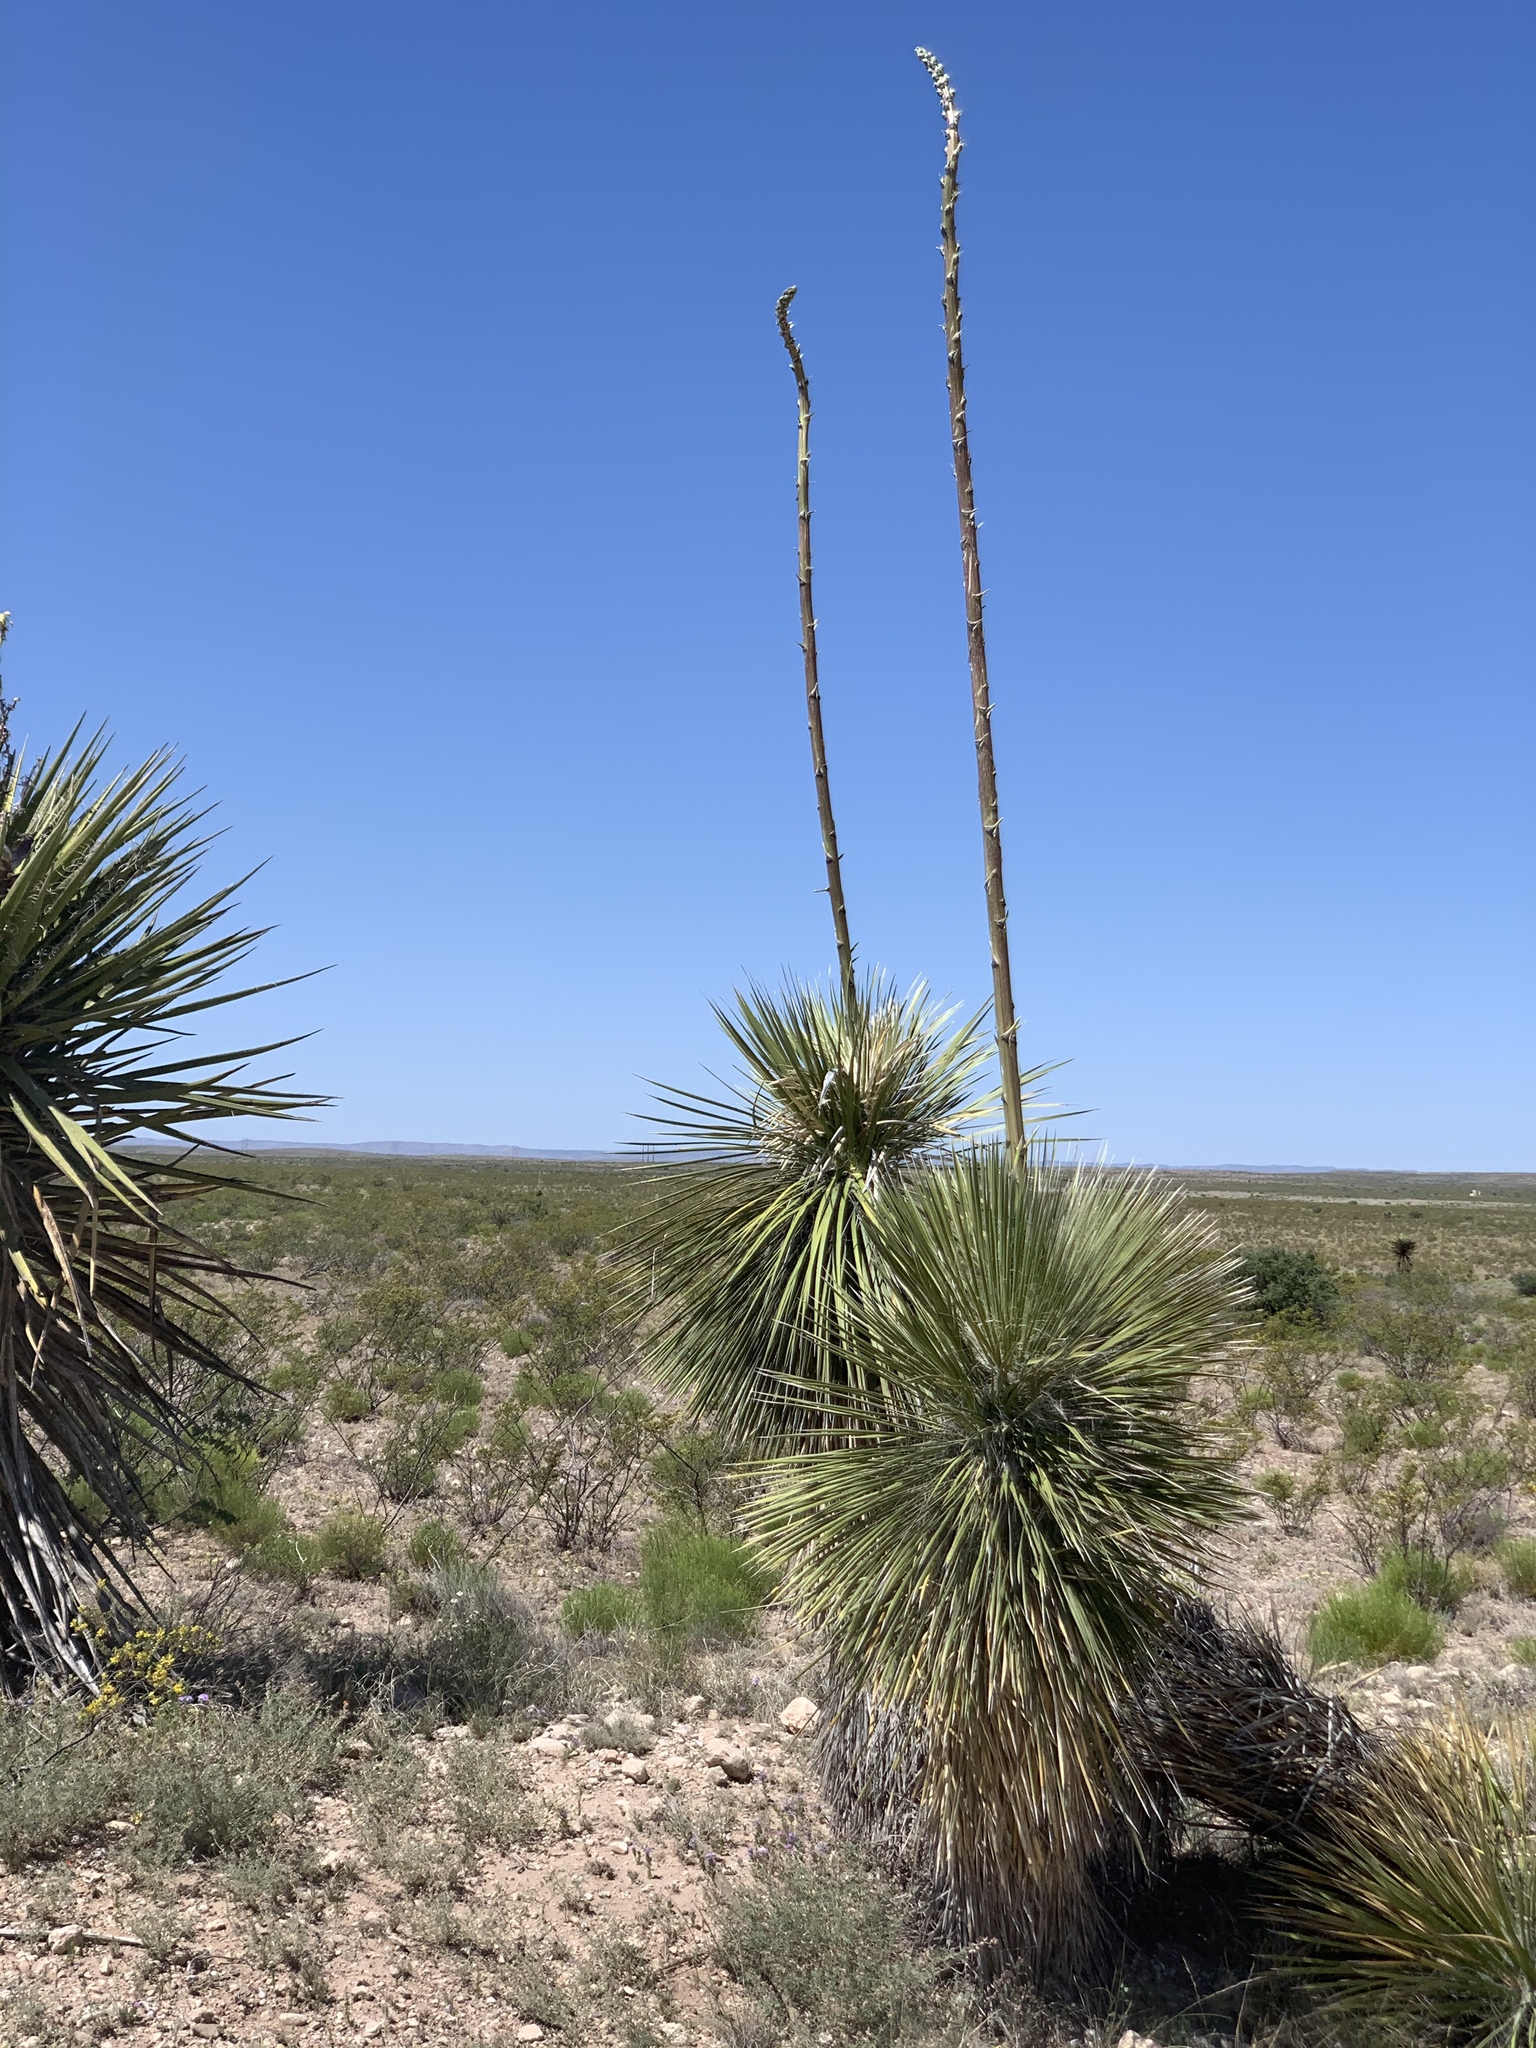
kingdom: Plantae
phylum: Tracheophyta
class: Liliopsida
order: Asparagales
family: Asparagaceae
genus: Yucca
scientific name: Yucca elata
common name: Palmella
